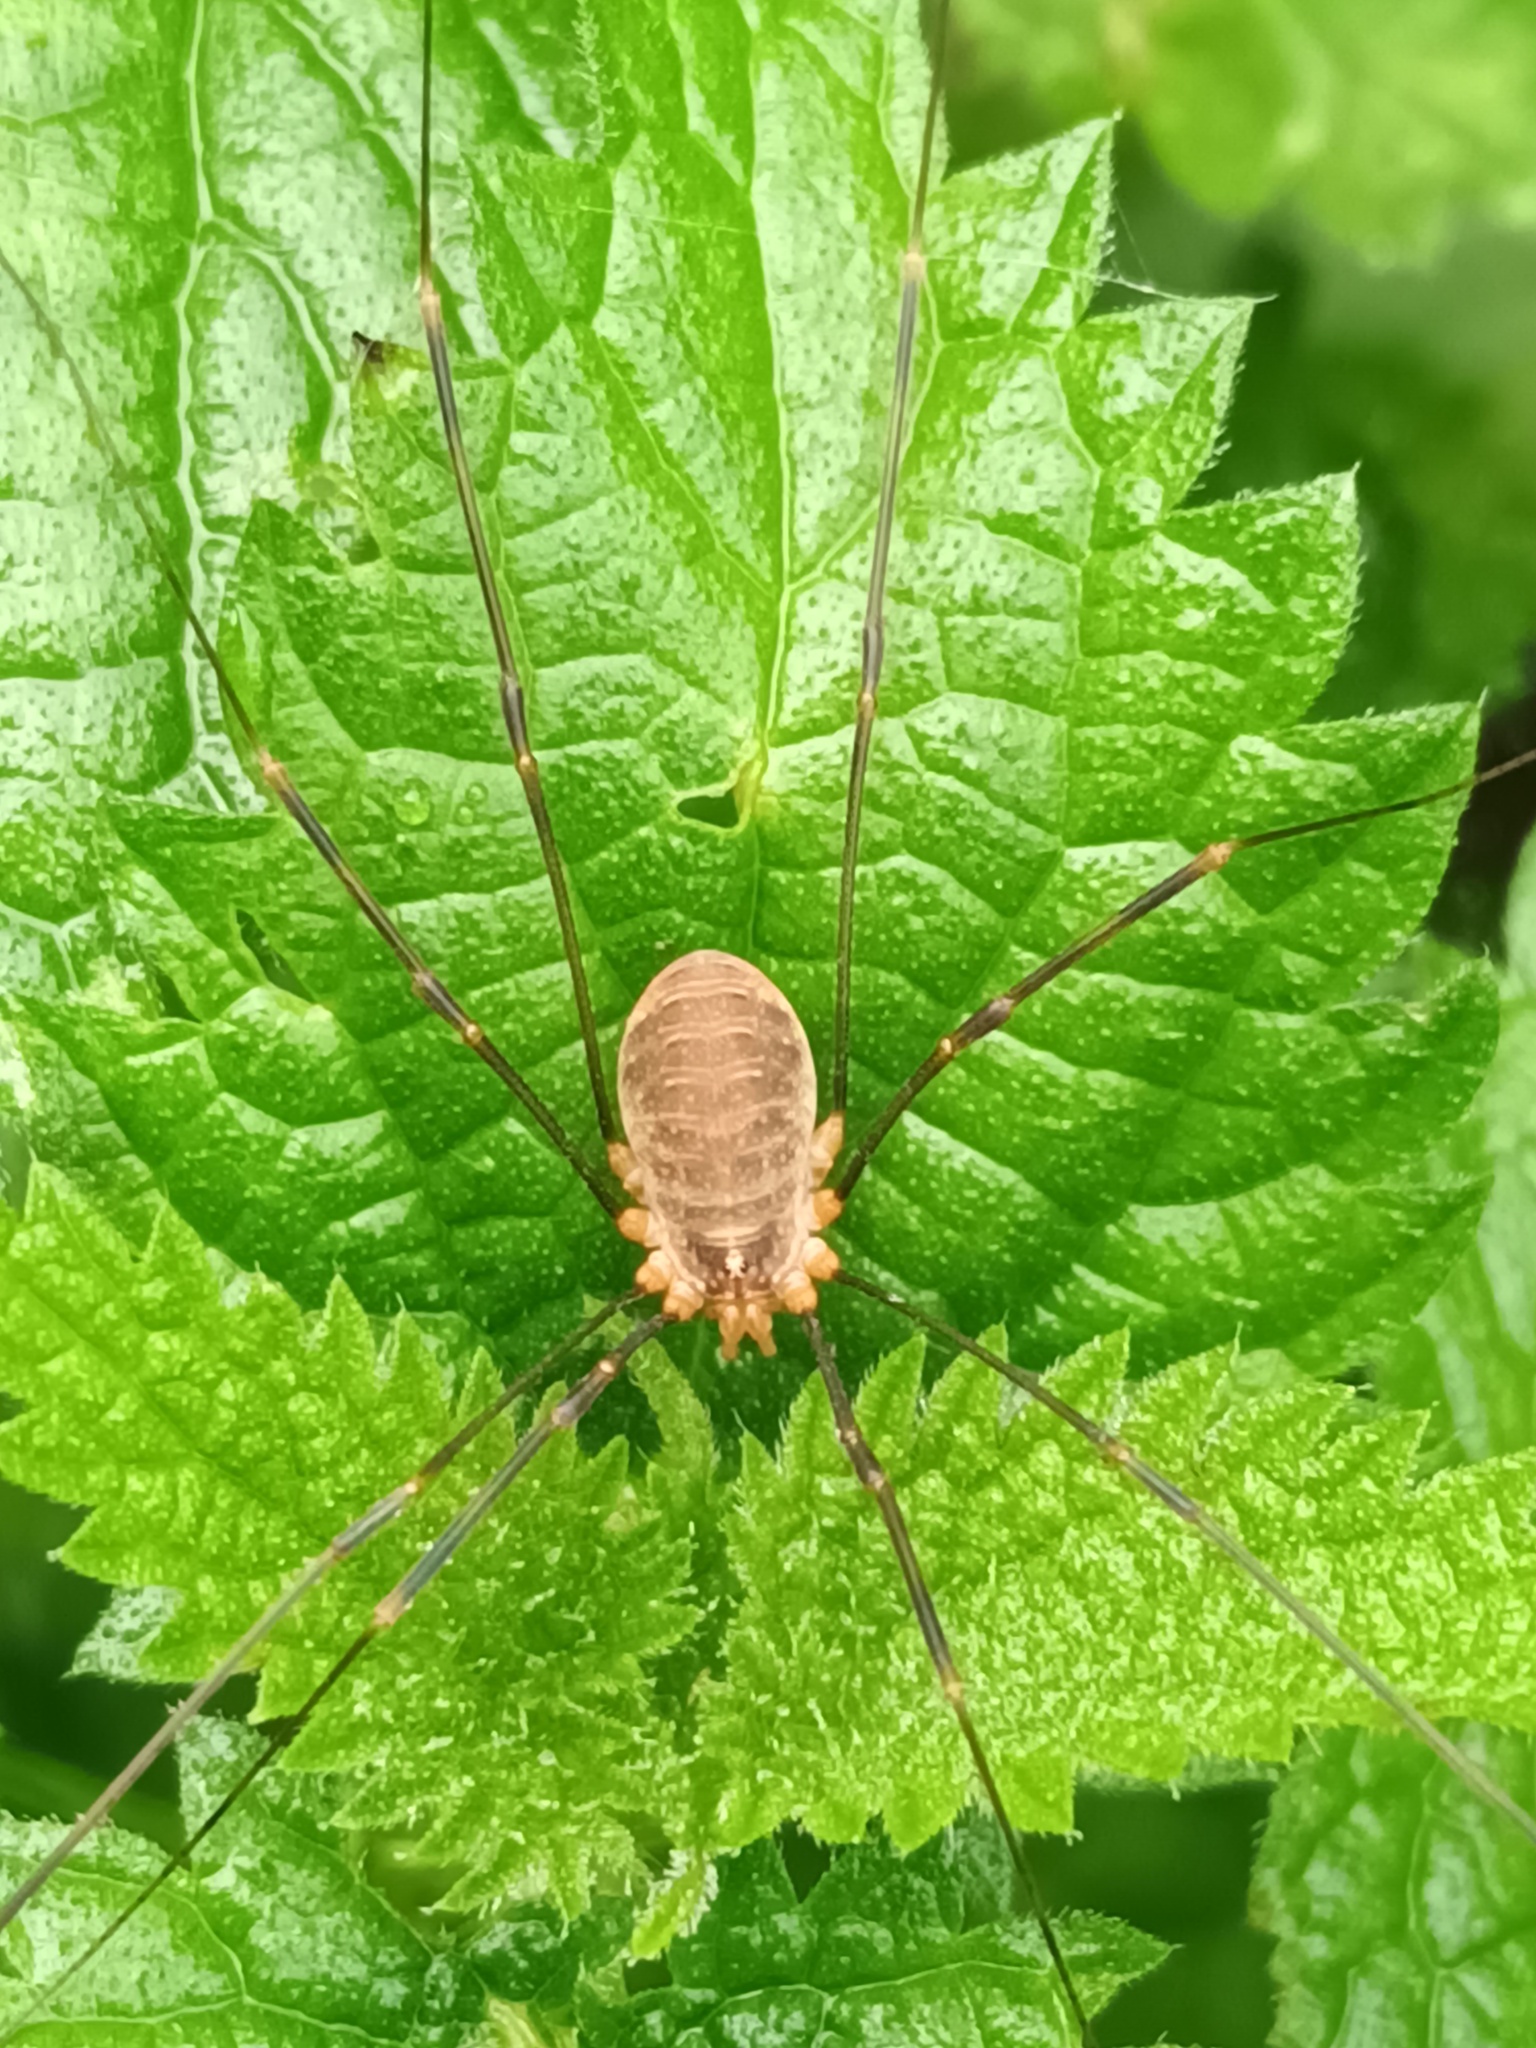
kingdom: Animalia
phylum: Arthropoda
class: Arachnida
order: Opiliones
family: Phalangiidae
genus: Opilio
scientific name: Opilio canestrinii
